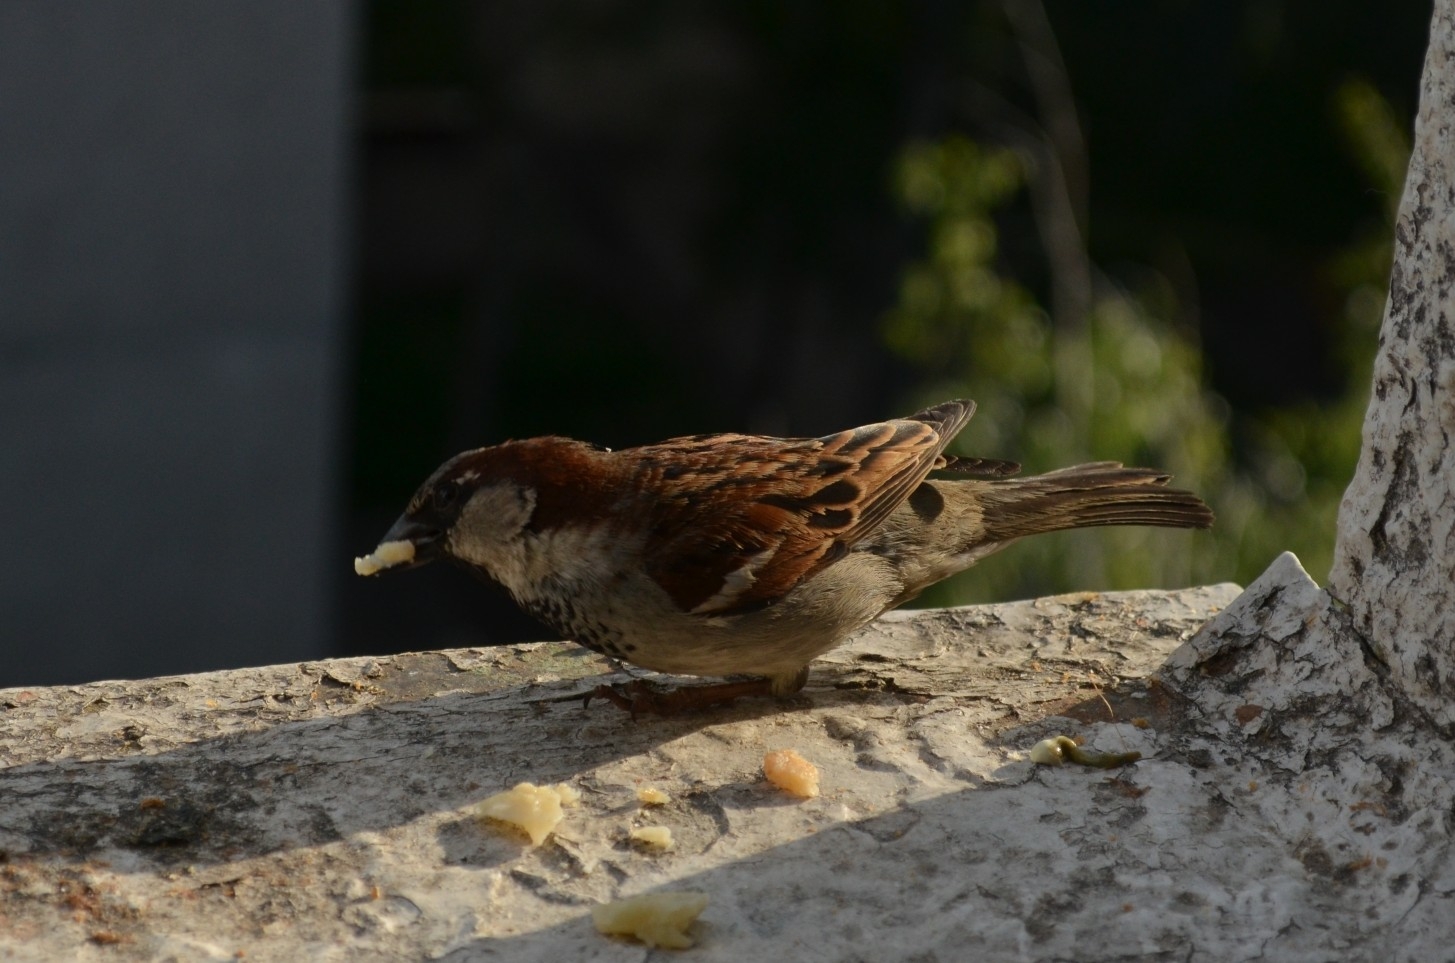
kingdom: Animalia
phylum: Chordata
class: Aves
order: Passeriformes
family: Passeridae
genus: Passer
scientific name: Passer domesticus
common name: House sparrow
